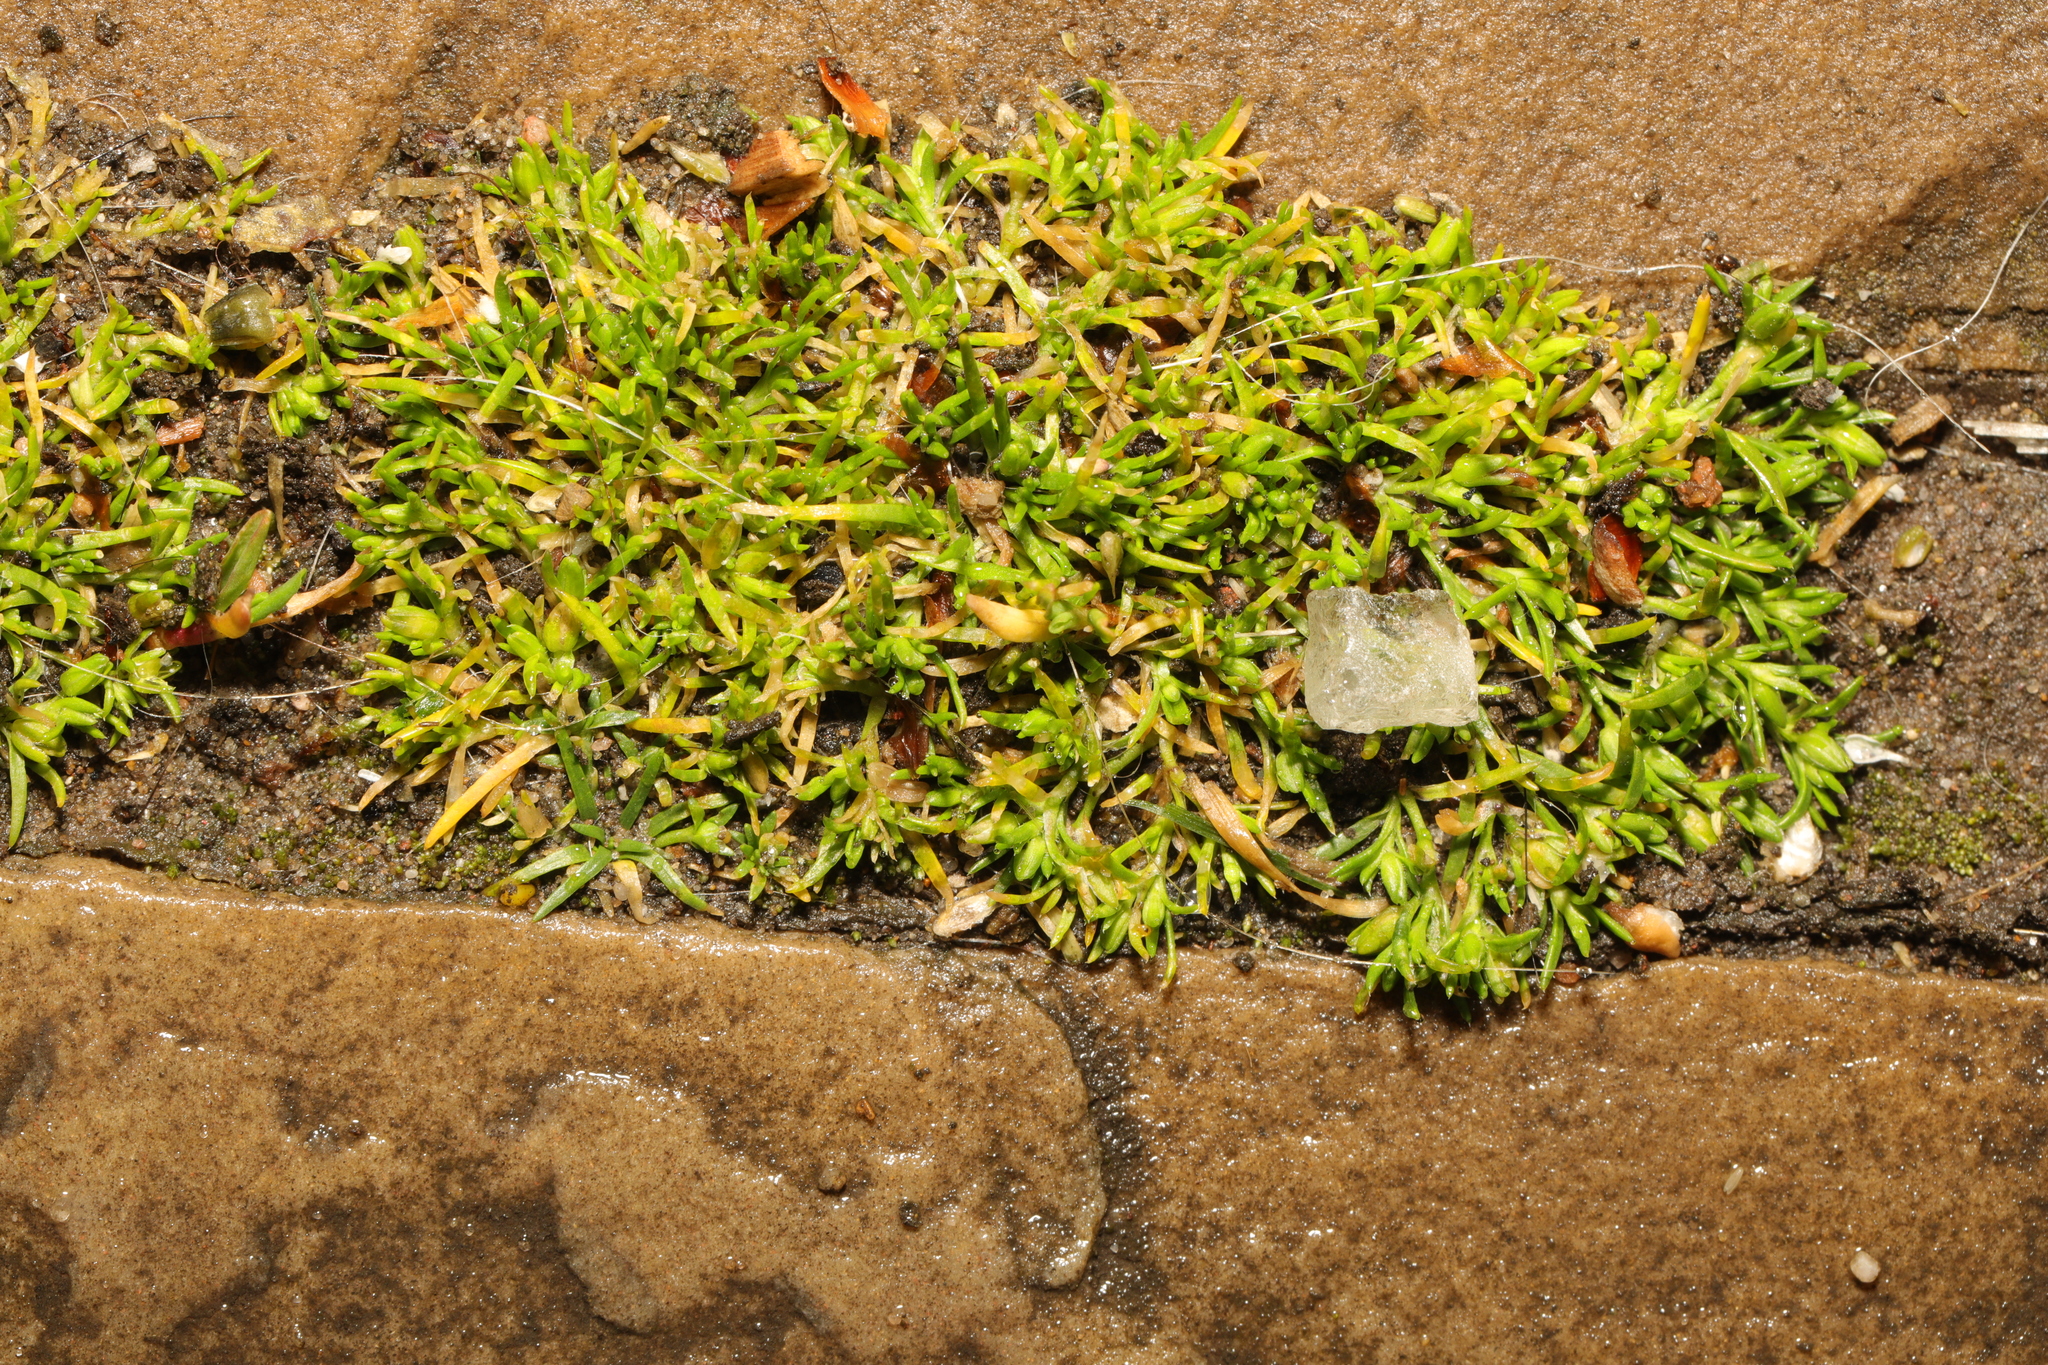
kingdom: Plantae
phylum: Tracheophyta
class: Magnoliopsida
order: Caryophyllales
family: Caryophyllaceae
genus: Sagina
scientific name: Sagina procumbens
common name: Procumbent pearlwort
